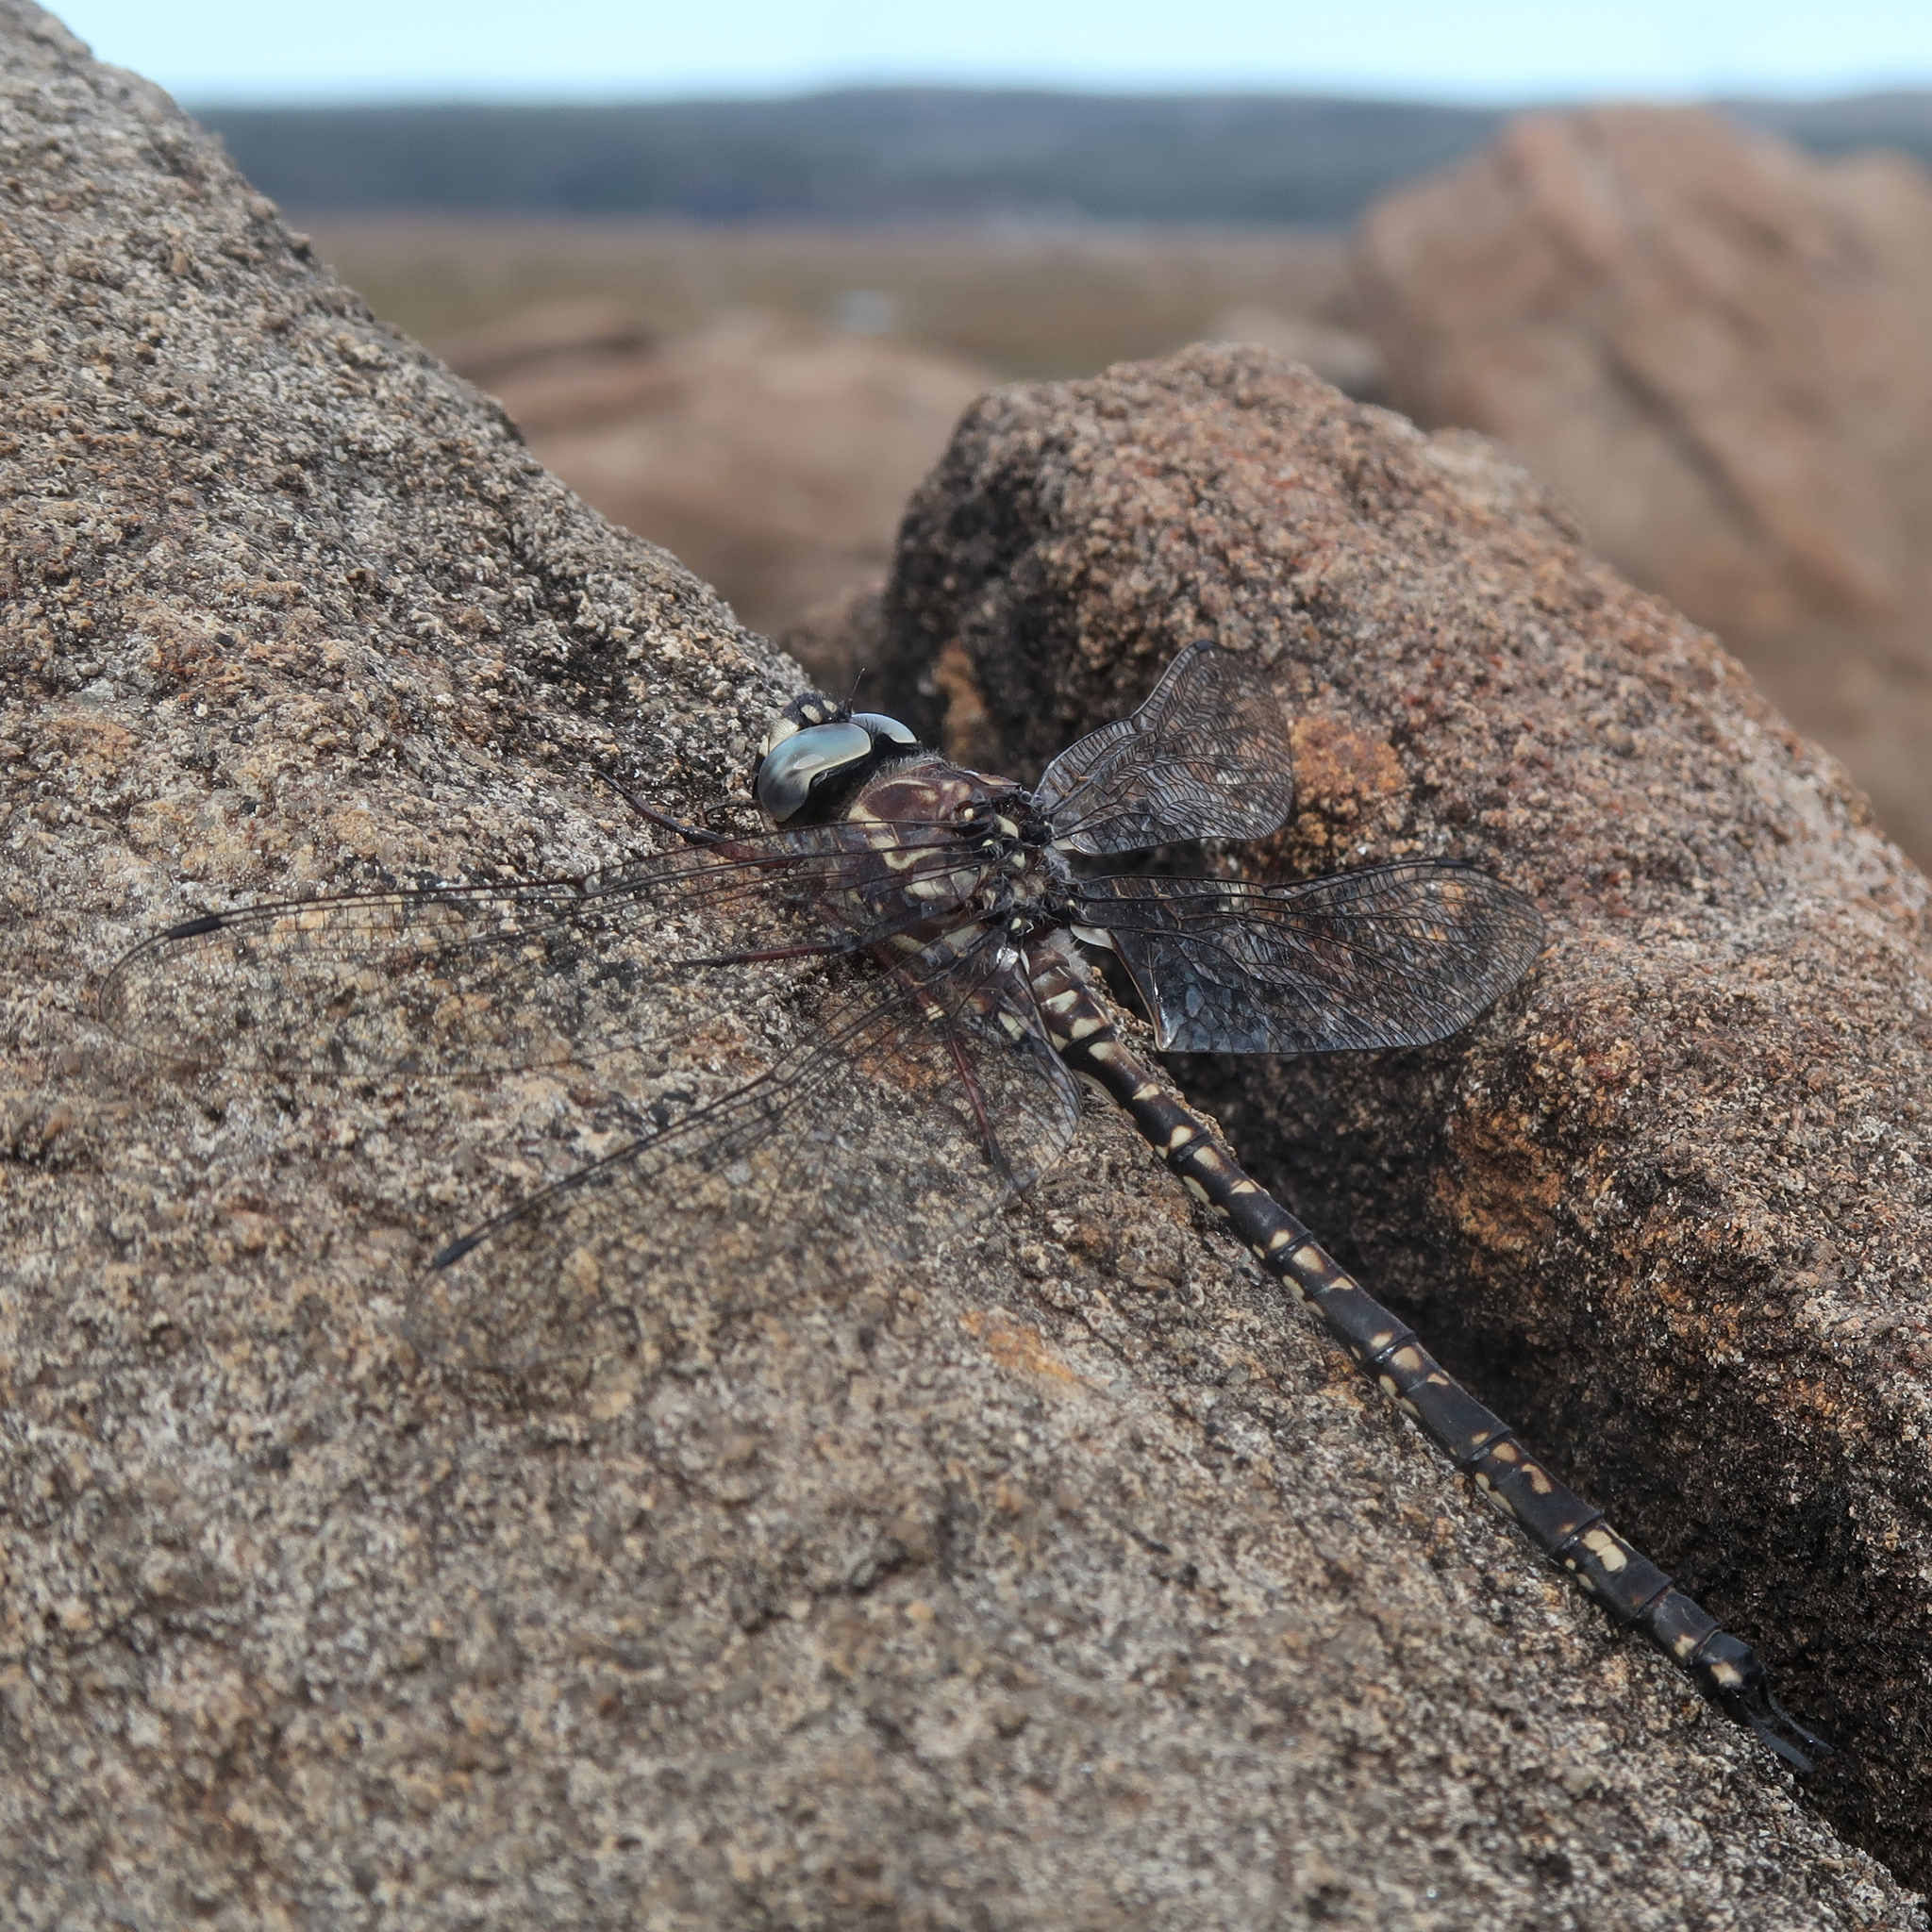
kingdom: Animalia
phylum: Arthropoda
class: Insecta
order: Odonata
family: Aeshnidae
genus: Austroaeschna
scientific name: Austroaeschna parvistigma
